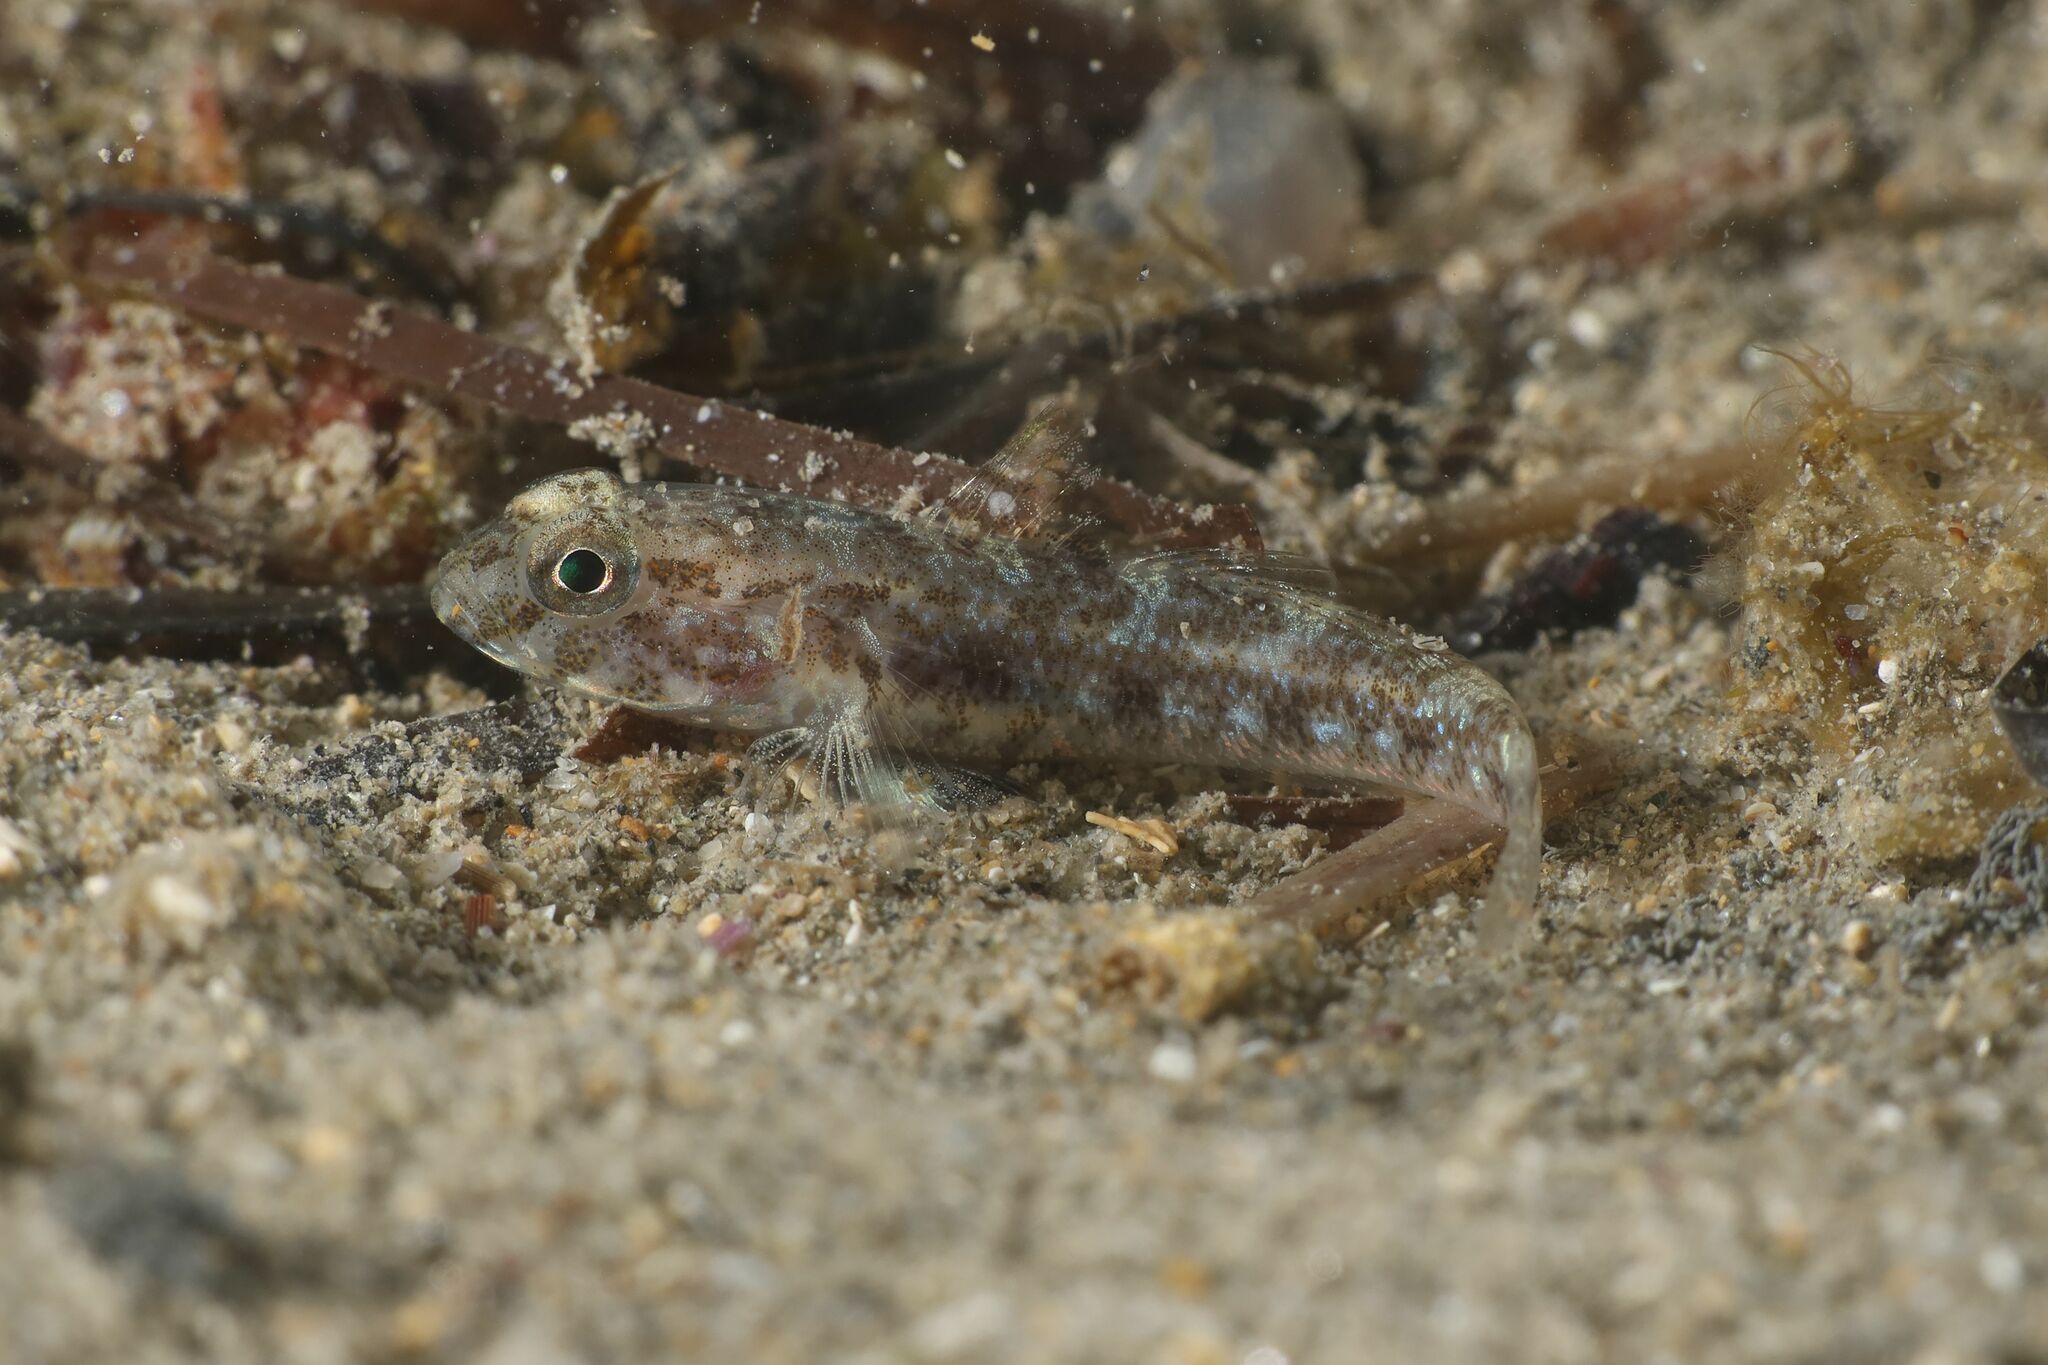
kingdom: Animalia
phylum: Chordata
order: Perciformes
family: Gobiidae
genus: Gobius
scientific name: Gobius niger
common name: Black goby
